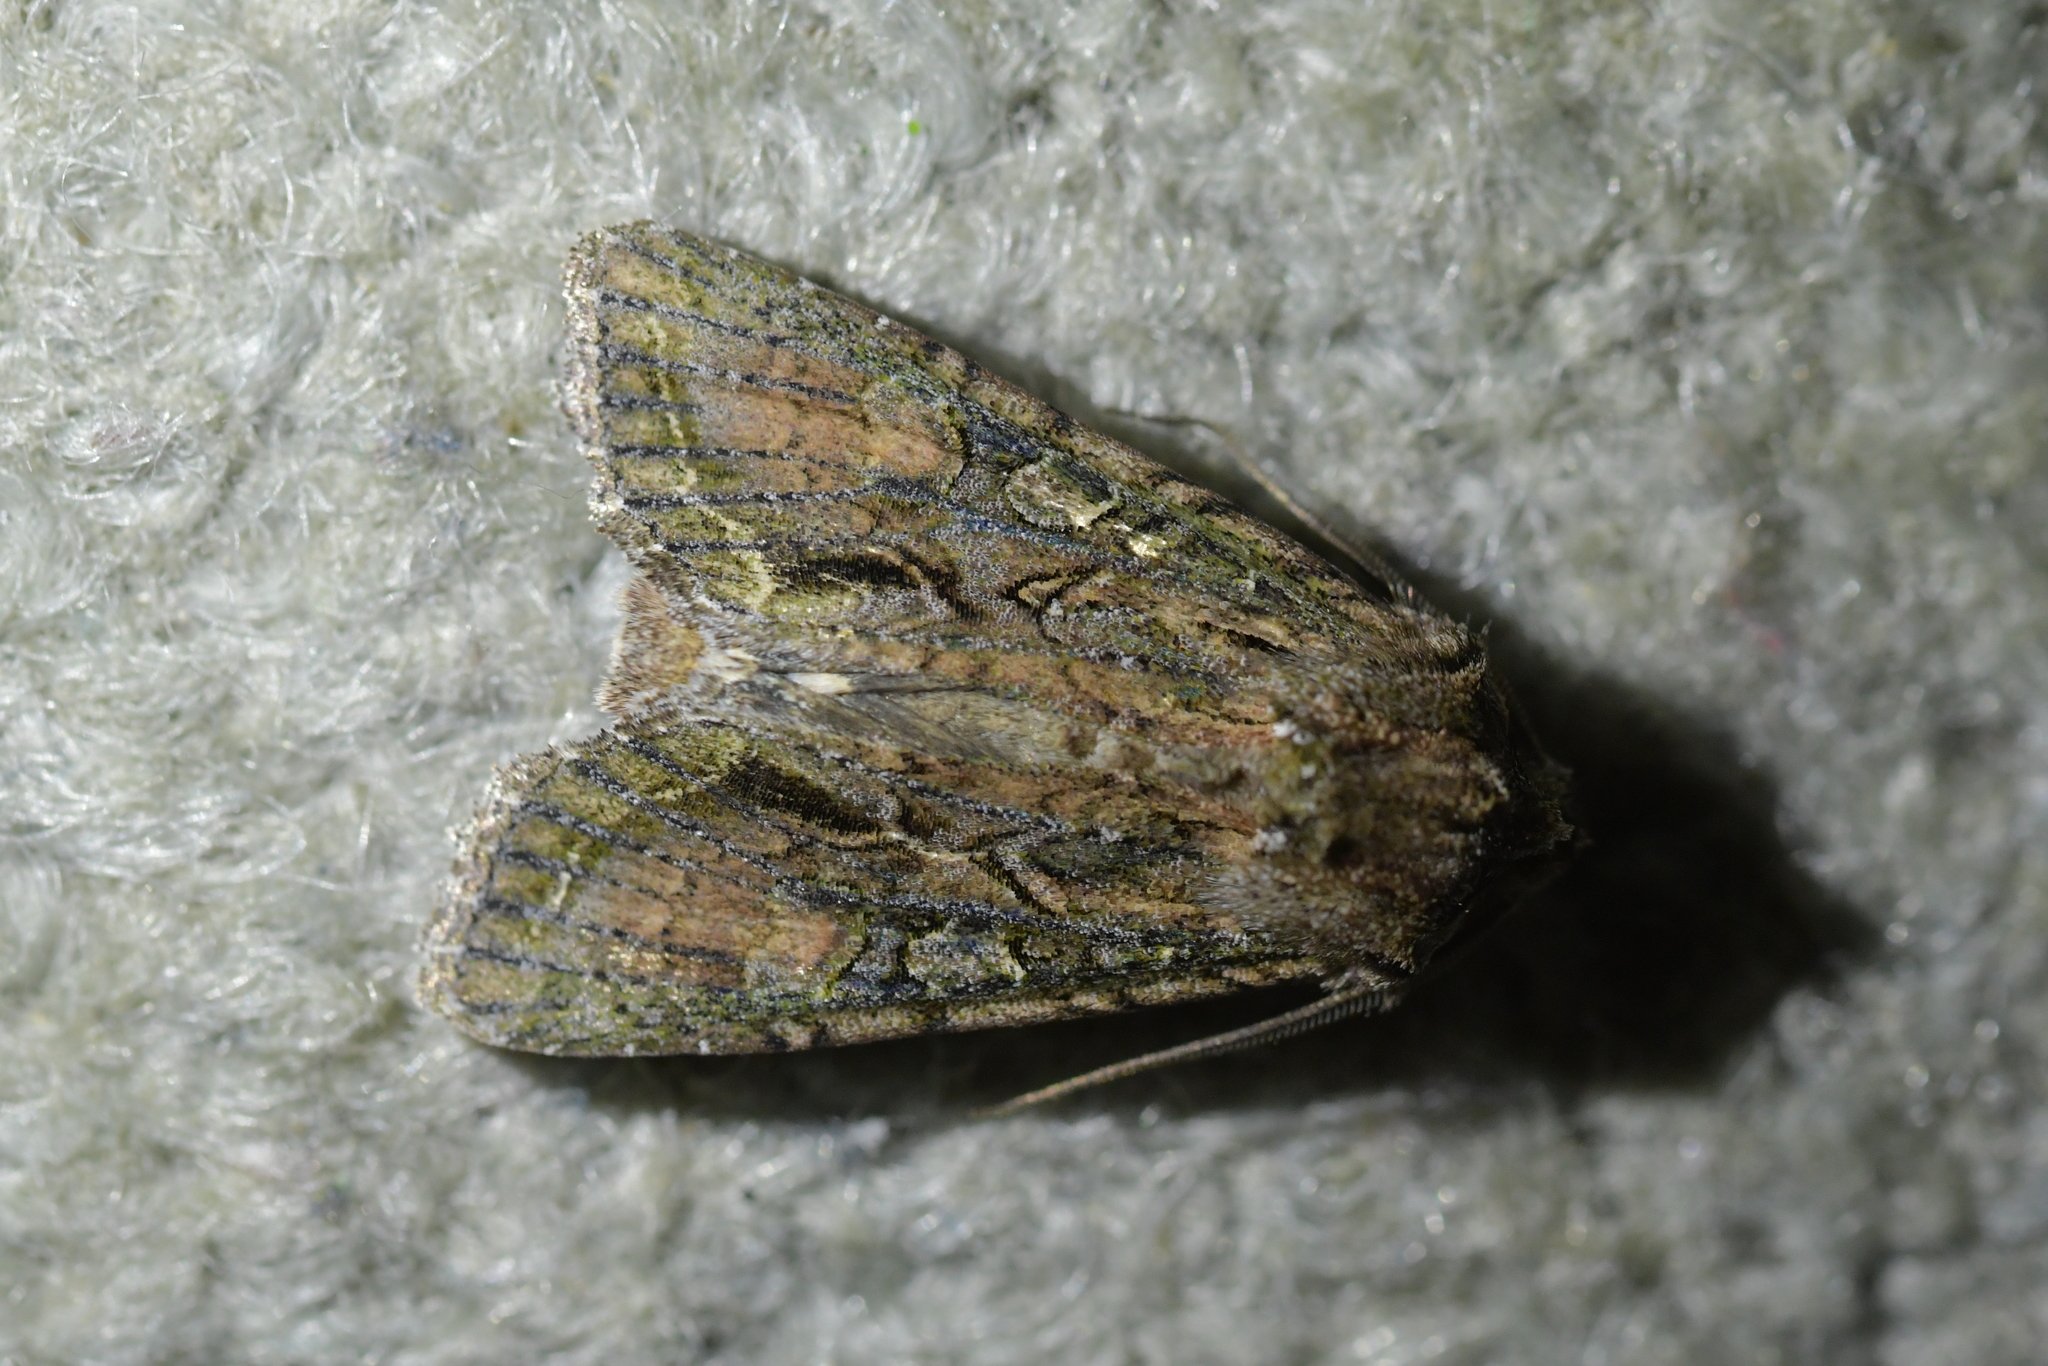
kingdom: Animalia
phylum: Arthropoda
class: Insecta
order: Lepidoptera
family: Noctuidae
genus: Ichneutica
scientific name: Ichneutica mutans
